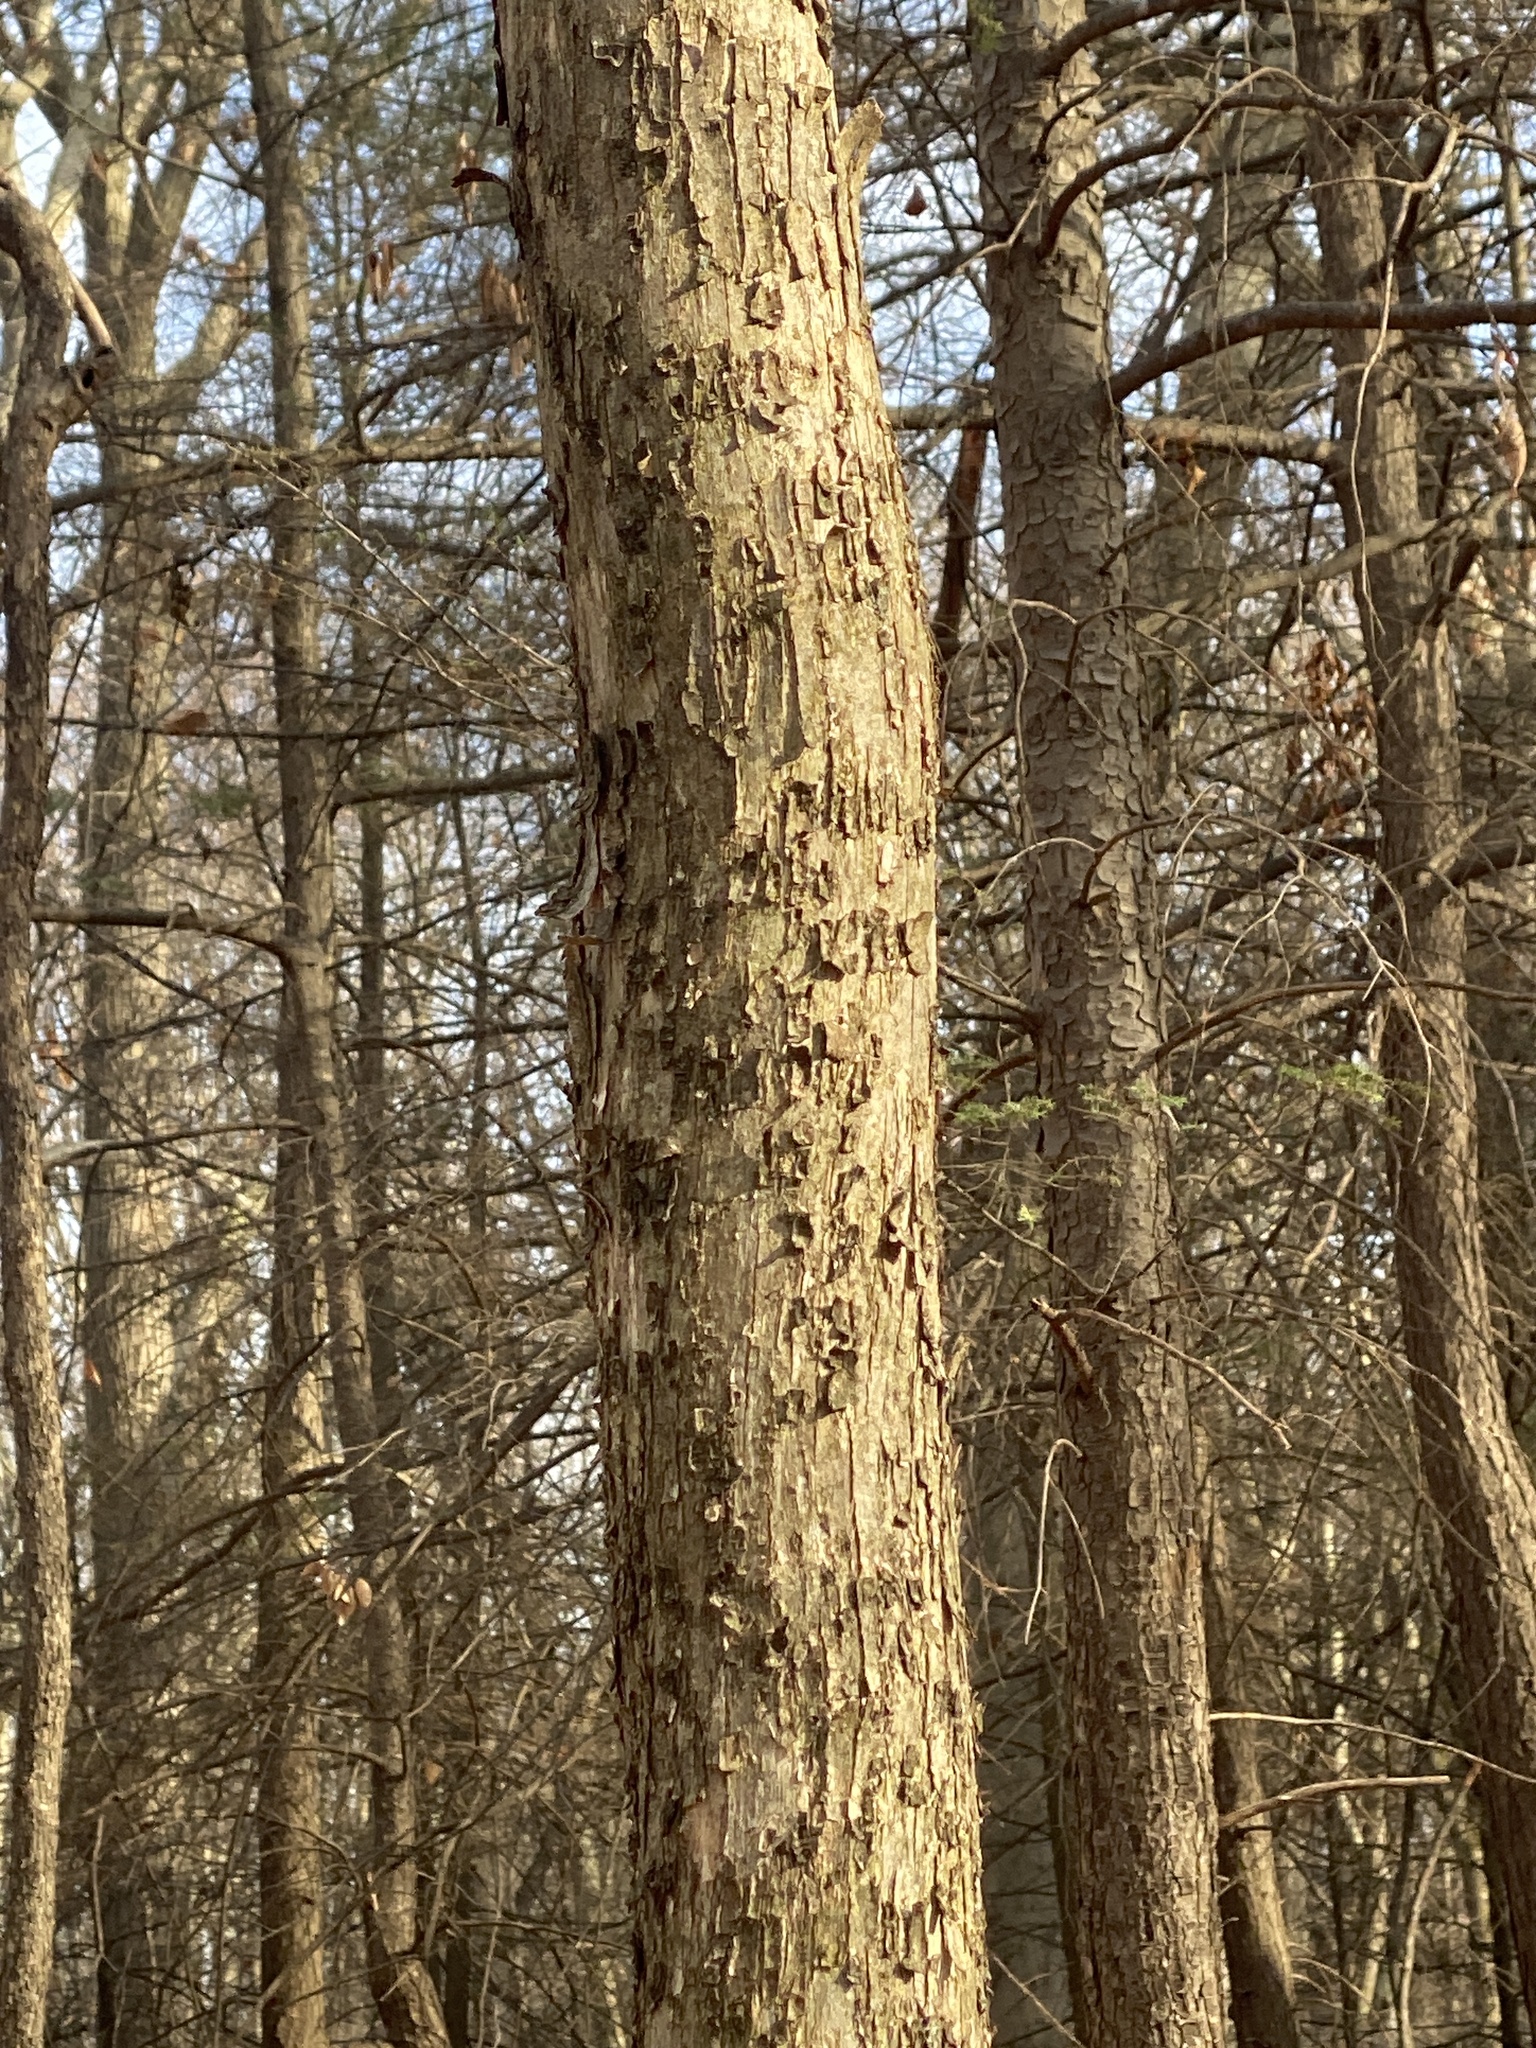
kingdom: Plantae
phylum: Tracheophyta
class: Magnoliopsida
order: Fagales
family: Betulaceae
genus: Ostrya
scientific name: Ostrya virginiana
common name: Ironwood
